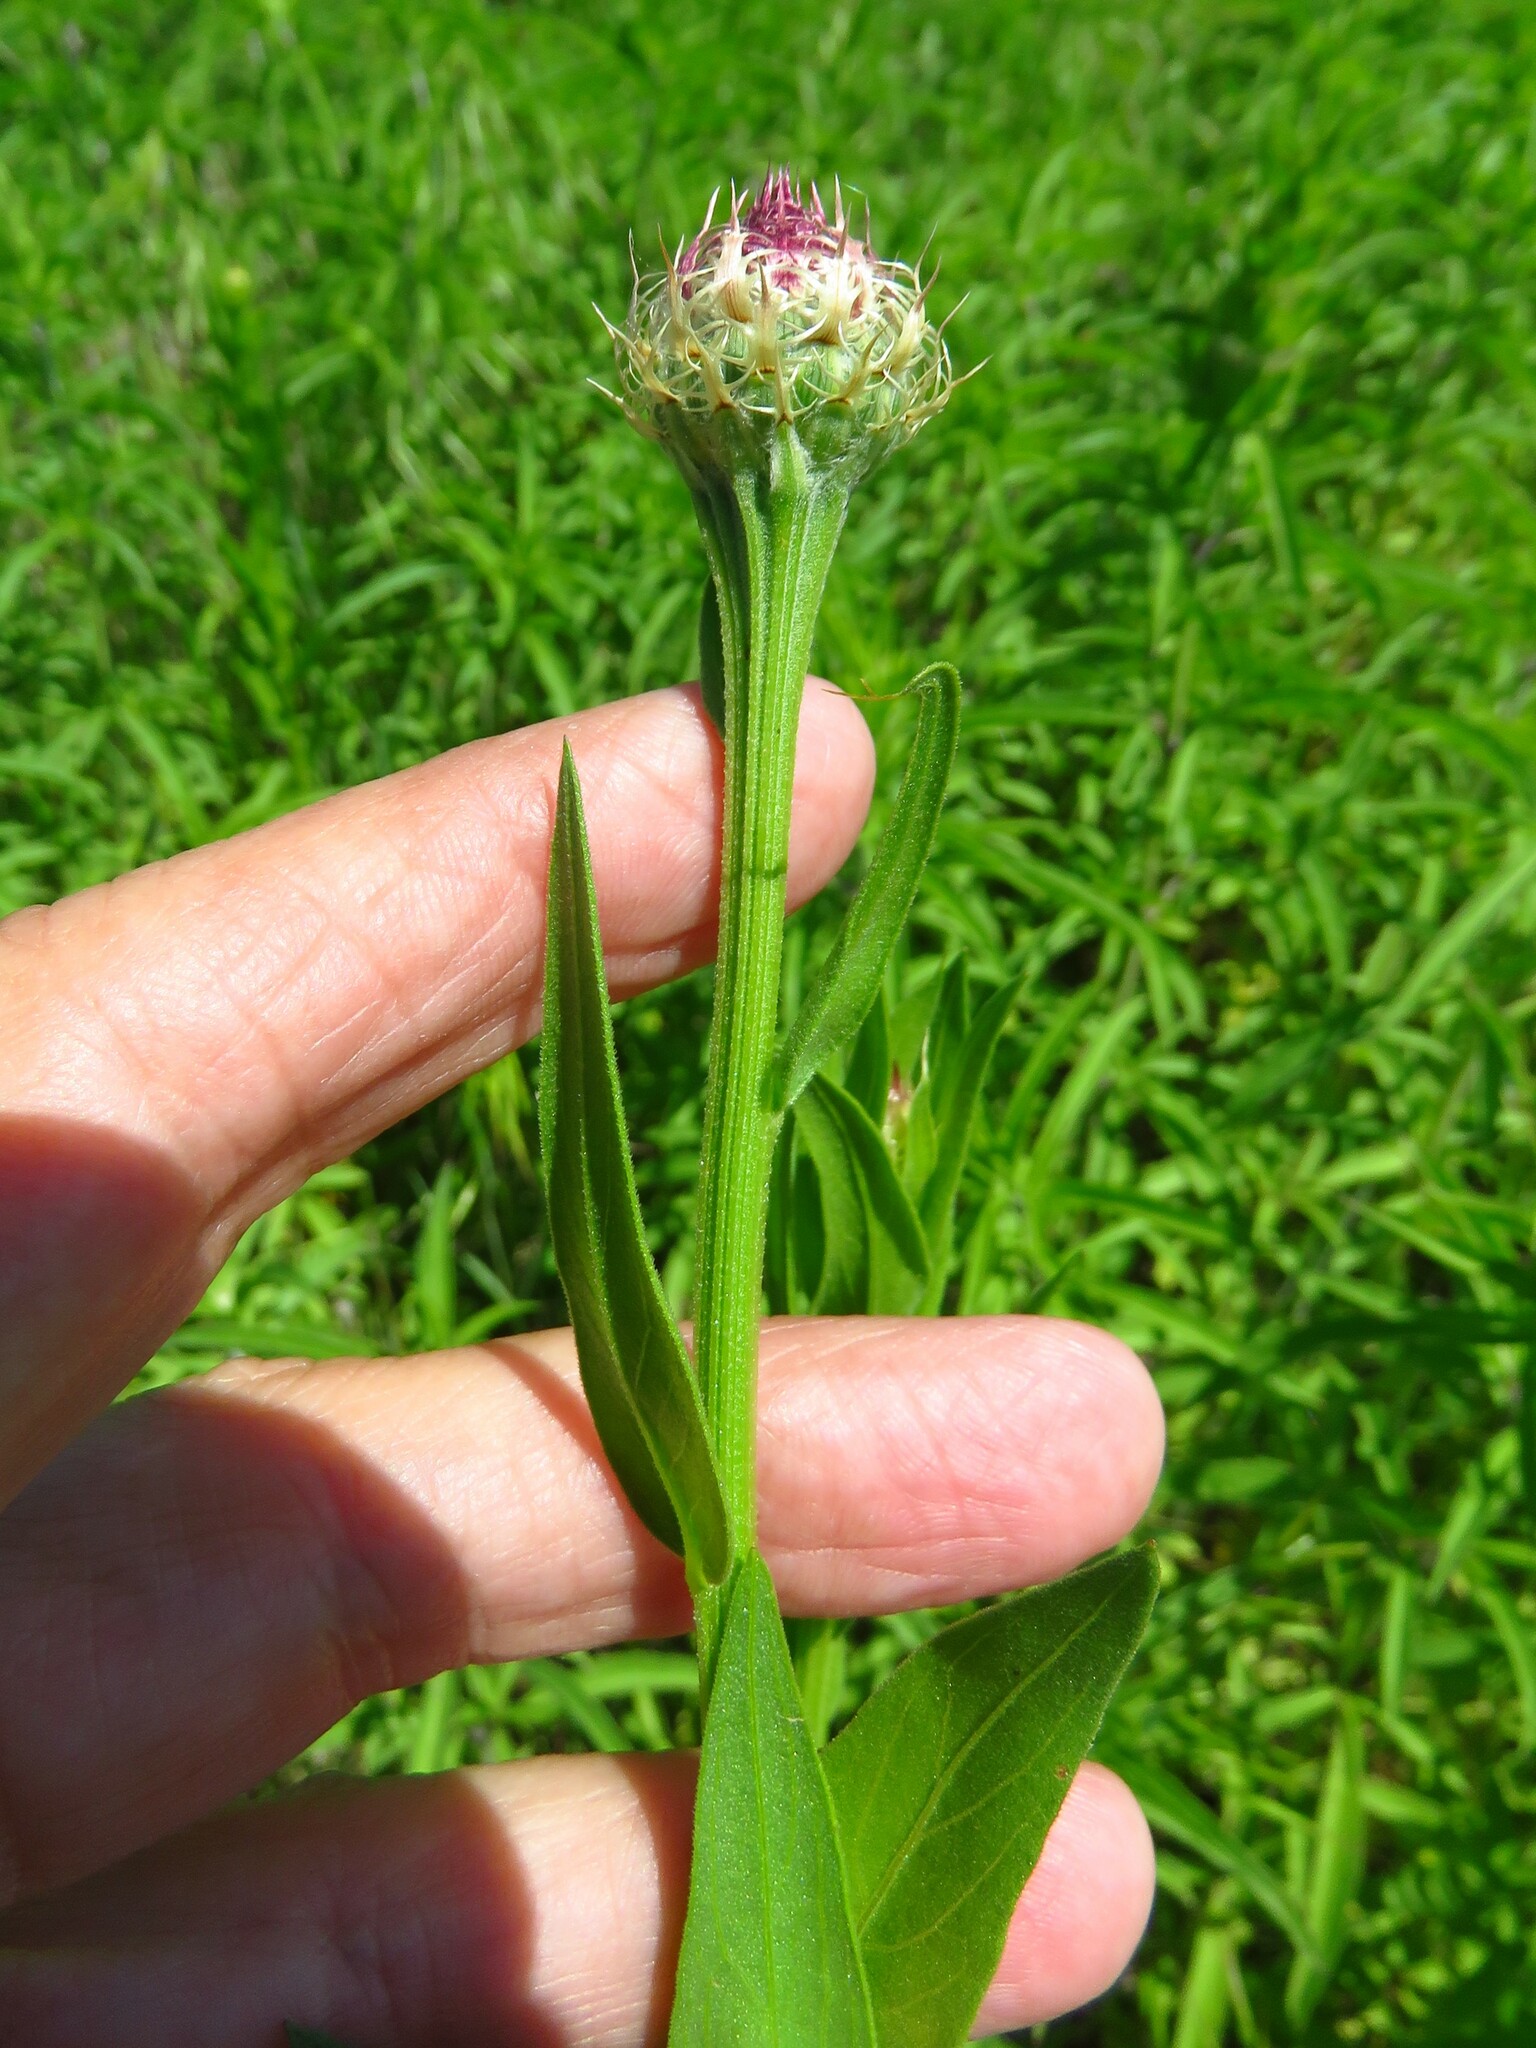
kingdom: Plantae
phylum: Tracheophyta
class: Magnoliopsida
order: Asterales
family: Asteraceae
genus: Plectocephalus
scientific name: Plectocephalus americanus
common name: American basket-flower
